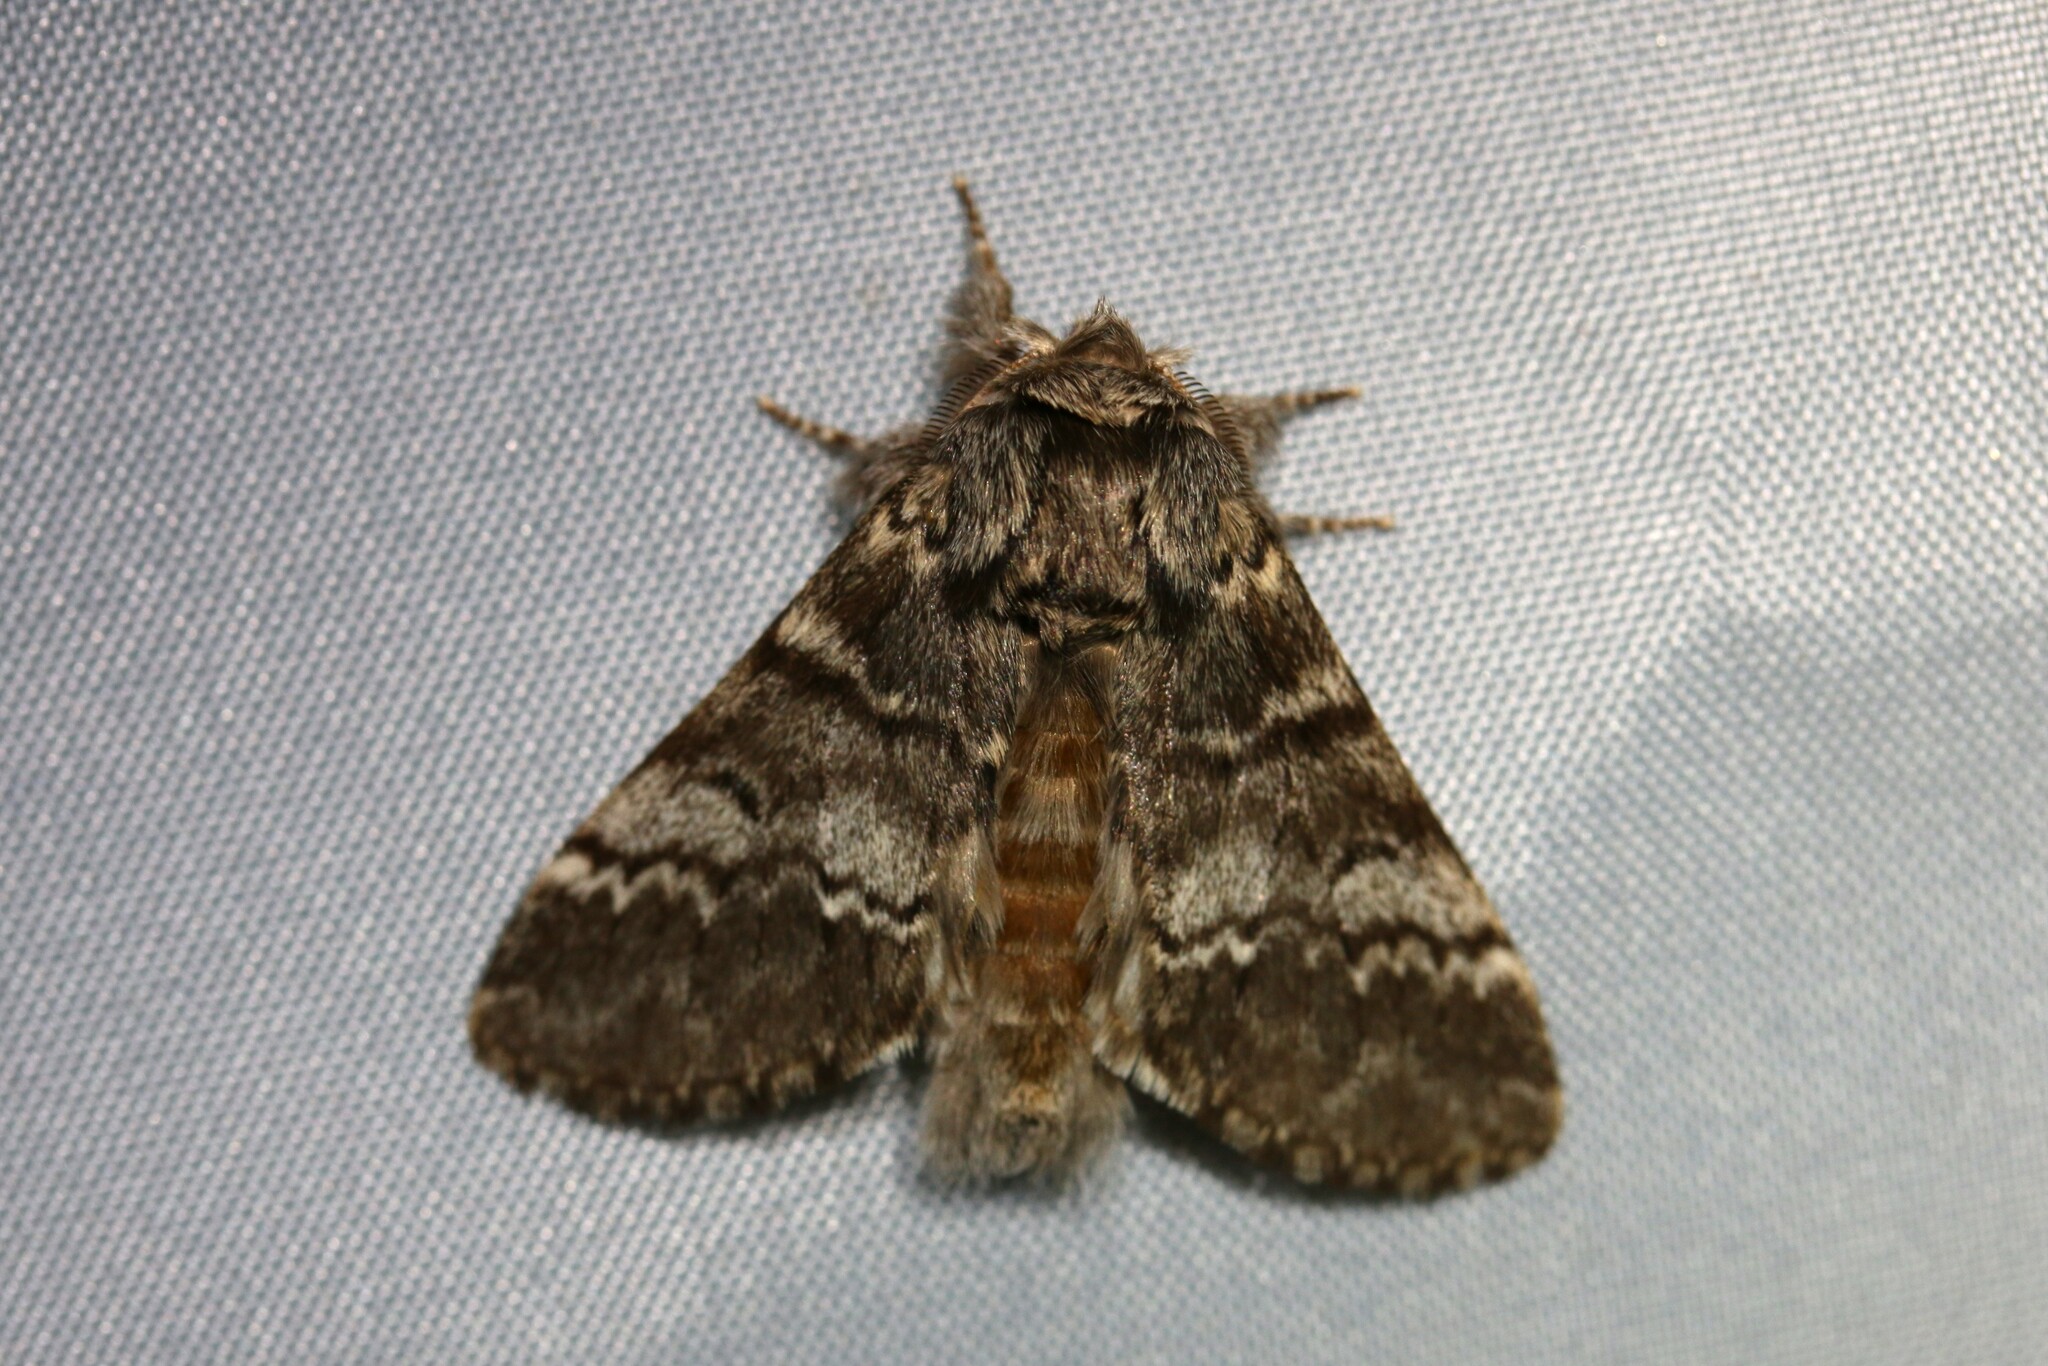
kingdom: Animalia
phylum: Arthropoda
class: Insecta
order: Lepidoptera
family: Notodontidae
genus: Drymonia
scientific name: Drymonia ruficornis
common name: Lunar marbled brown
